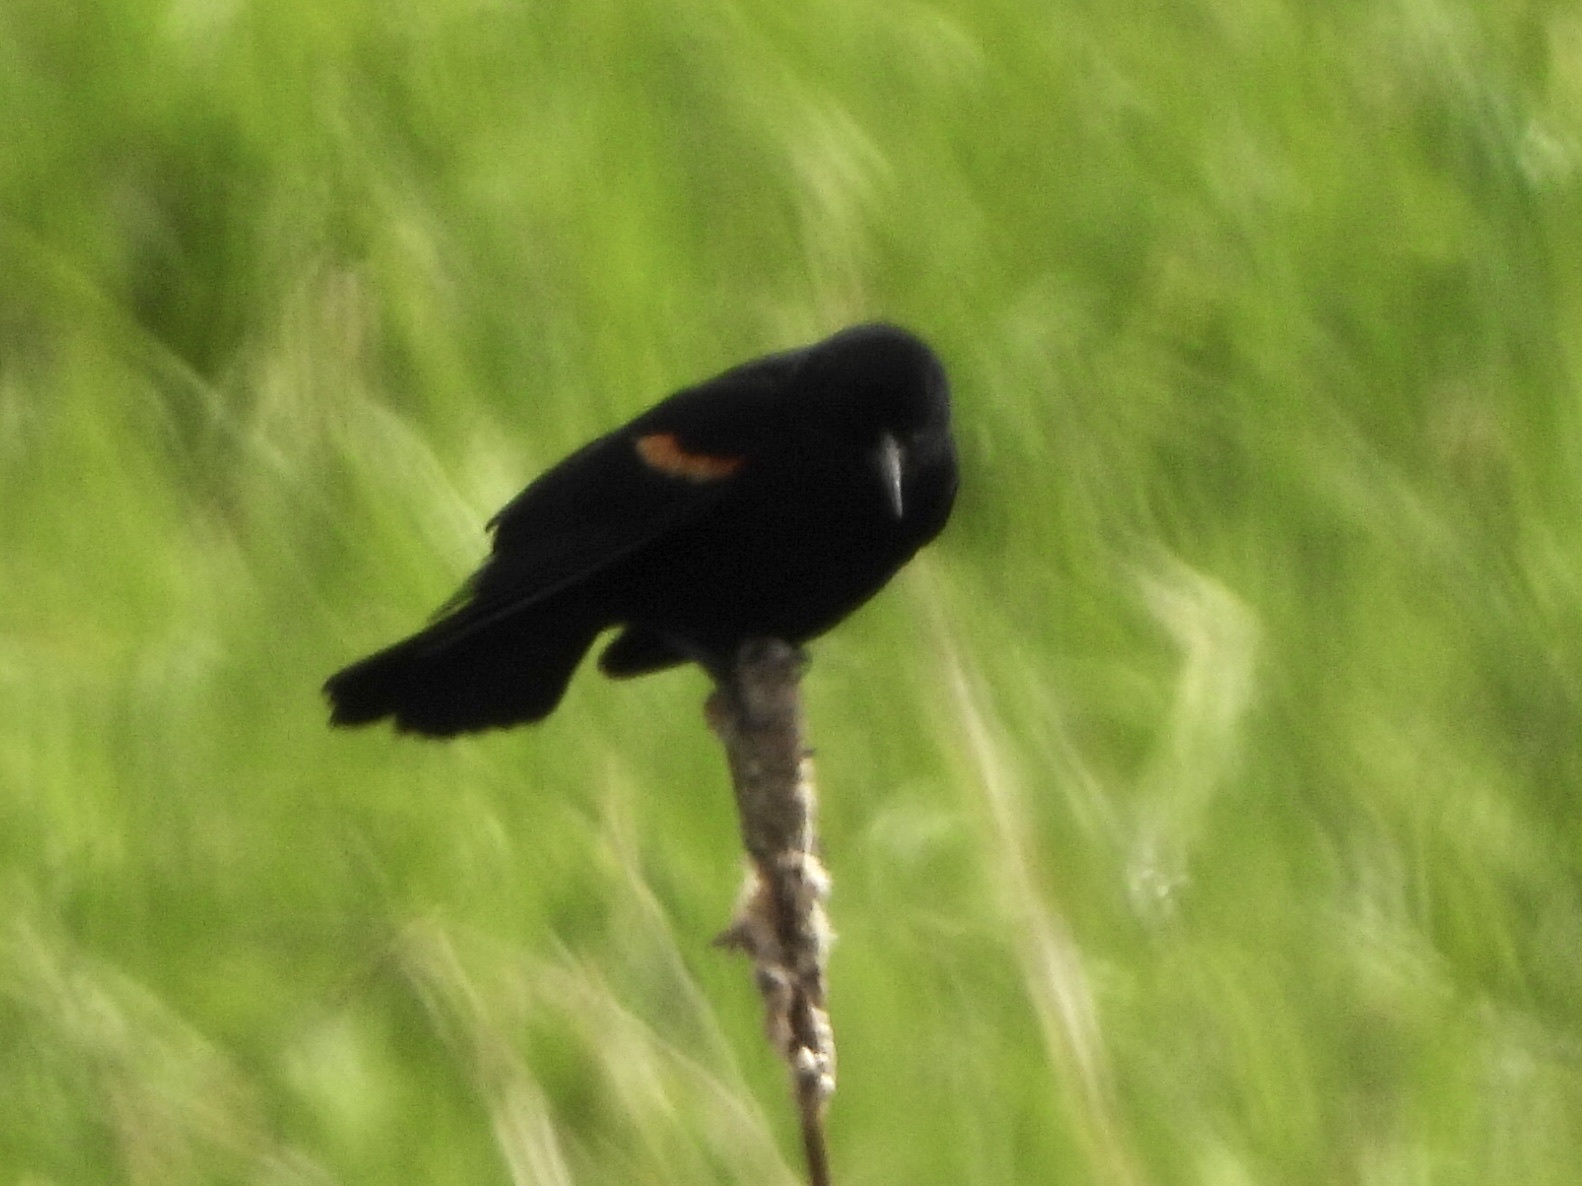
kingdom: Animalia
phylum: Chordata
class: Aves
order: Passeriformes
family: Icteridae
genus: Agelaius
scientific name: Agelaius phoeniceus
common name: Red-winged blackbird
